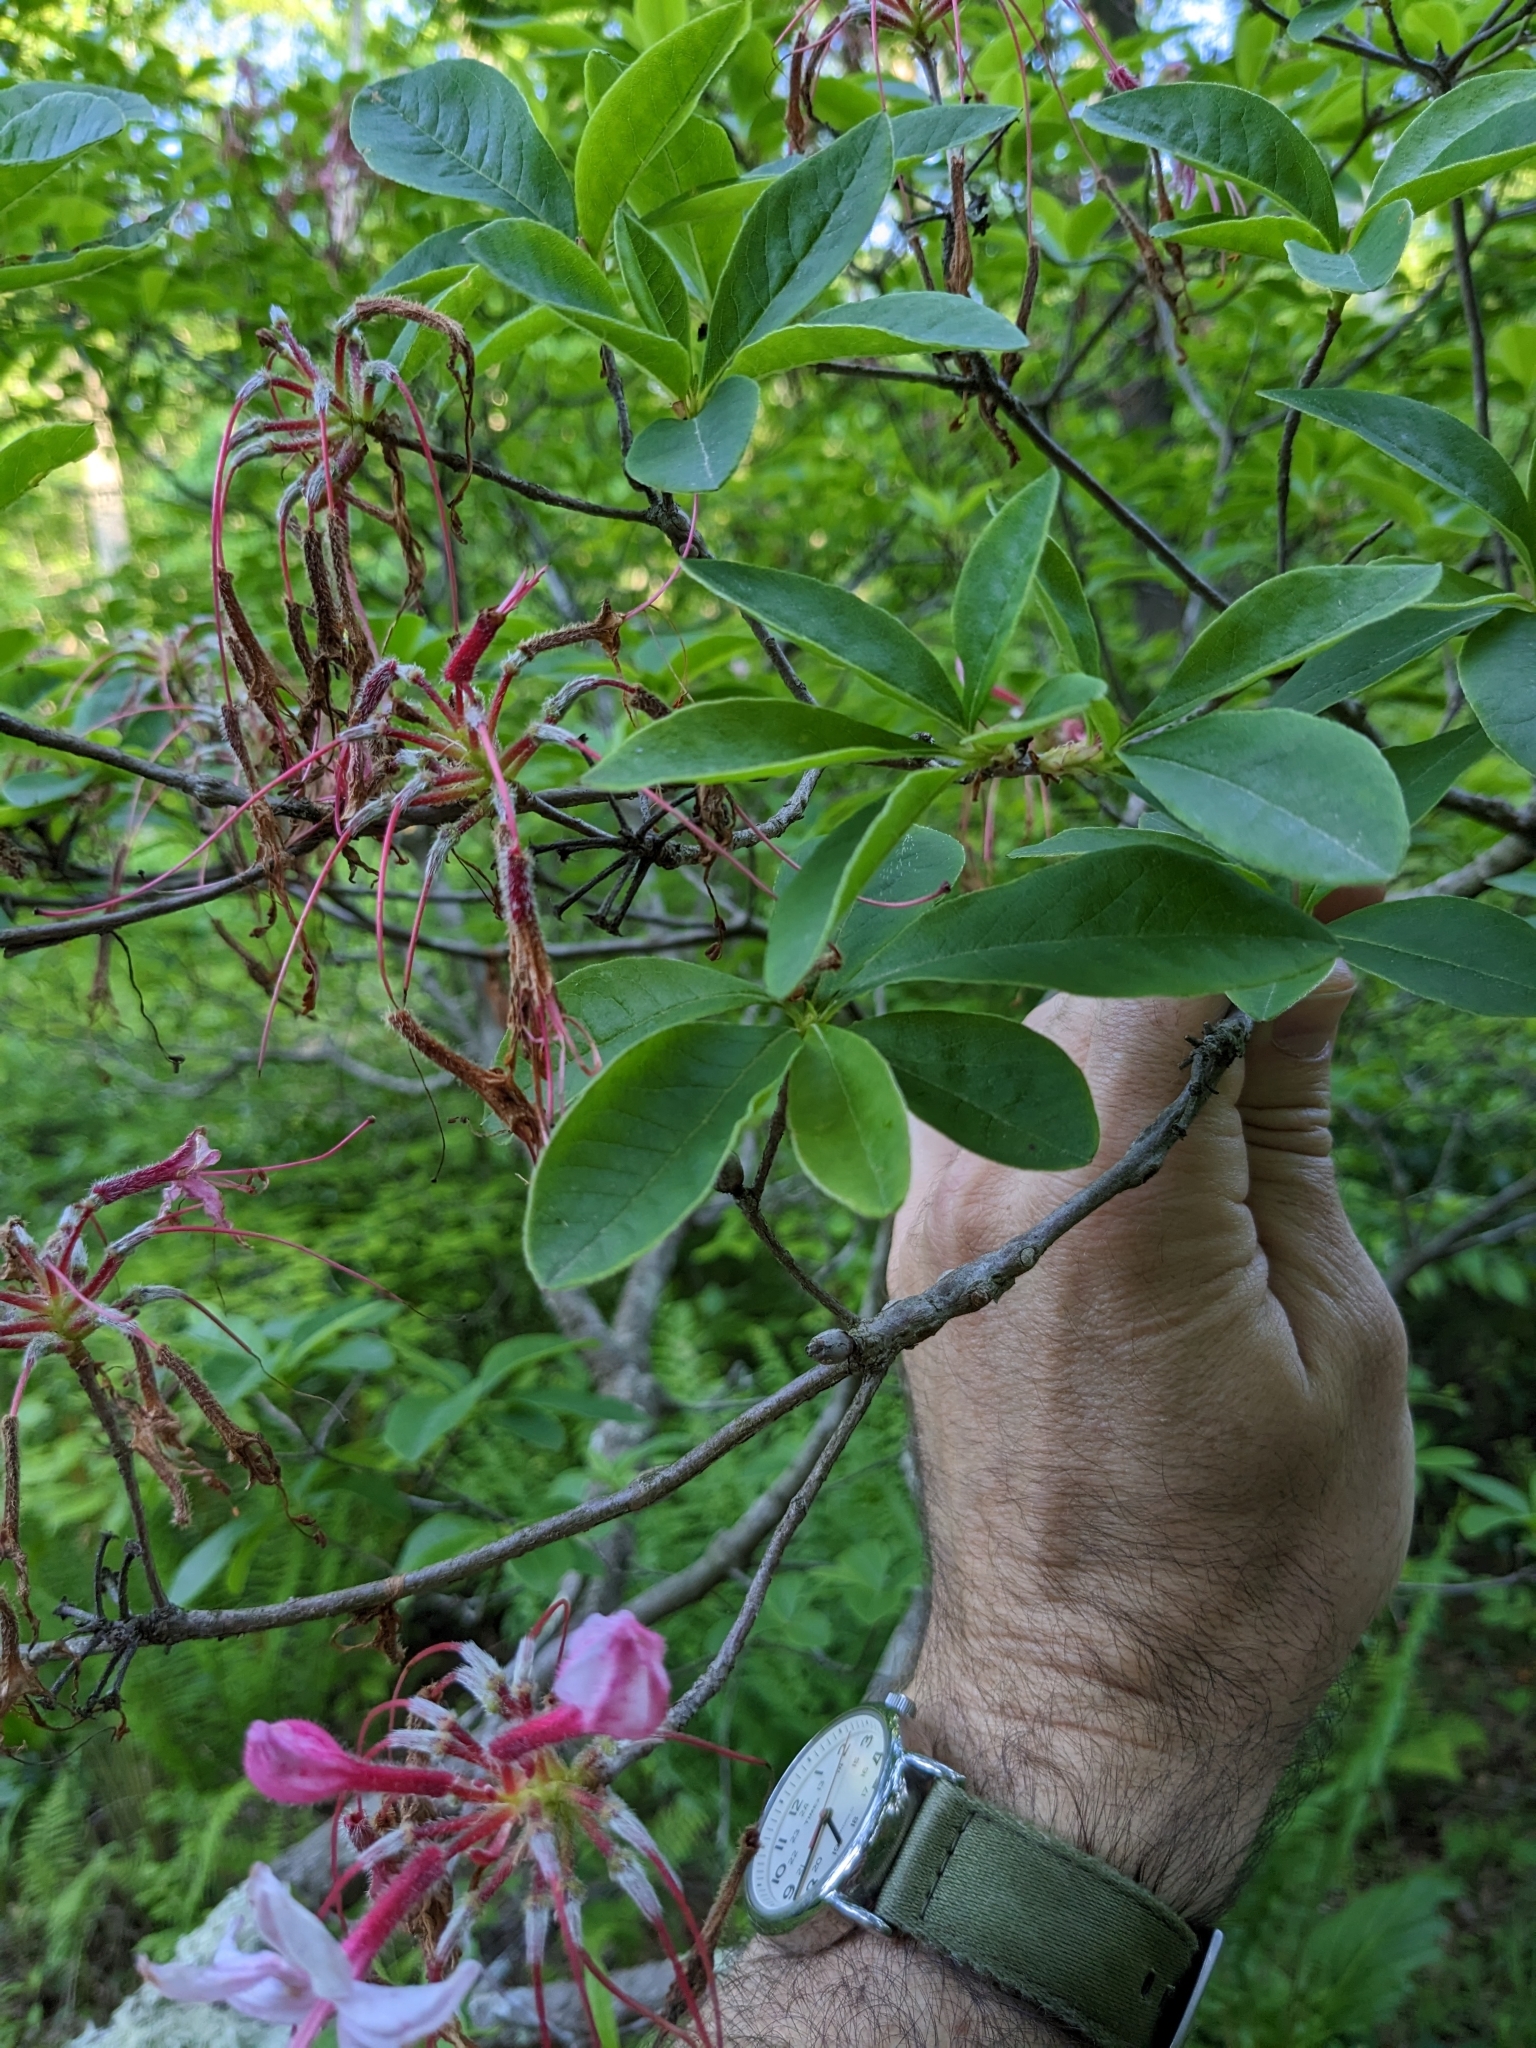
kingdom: Plantae
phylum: Tracheophyta
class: Magnoliopsida
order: Ericales
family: Ericaceae
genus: Rhododendron
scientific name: Rhododendron periclymenoides
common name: Election-pink
